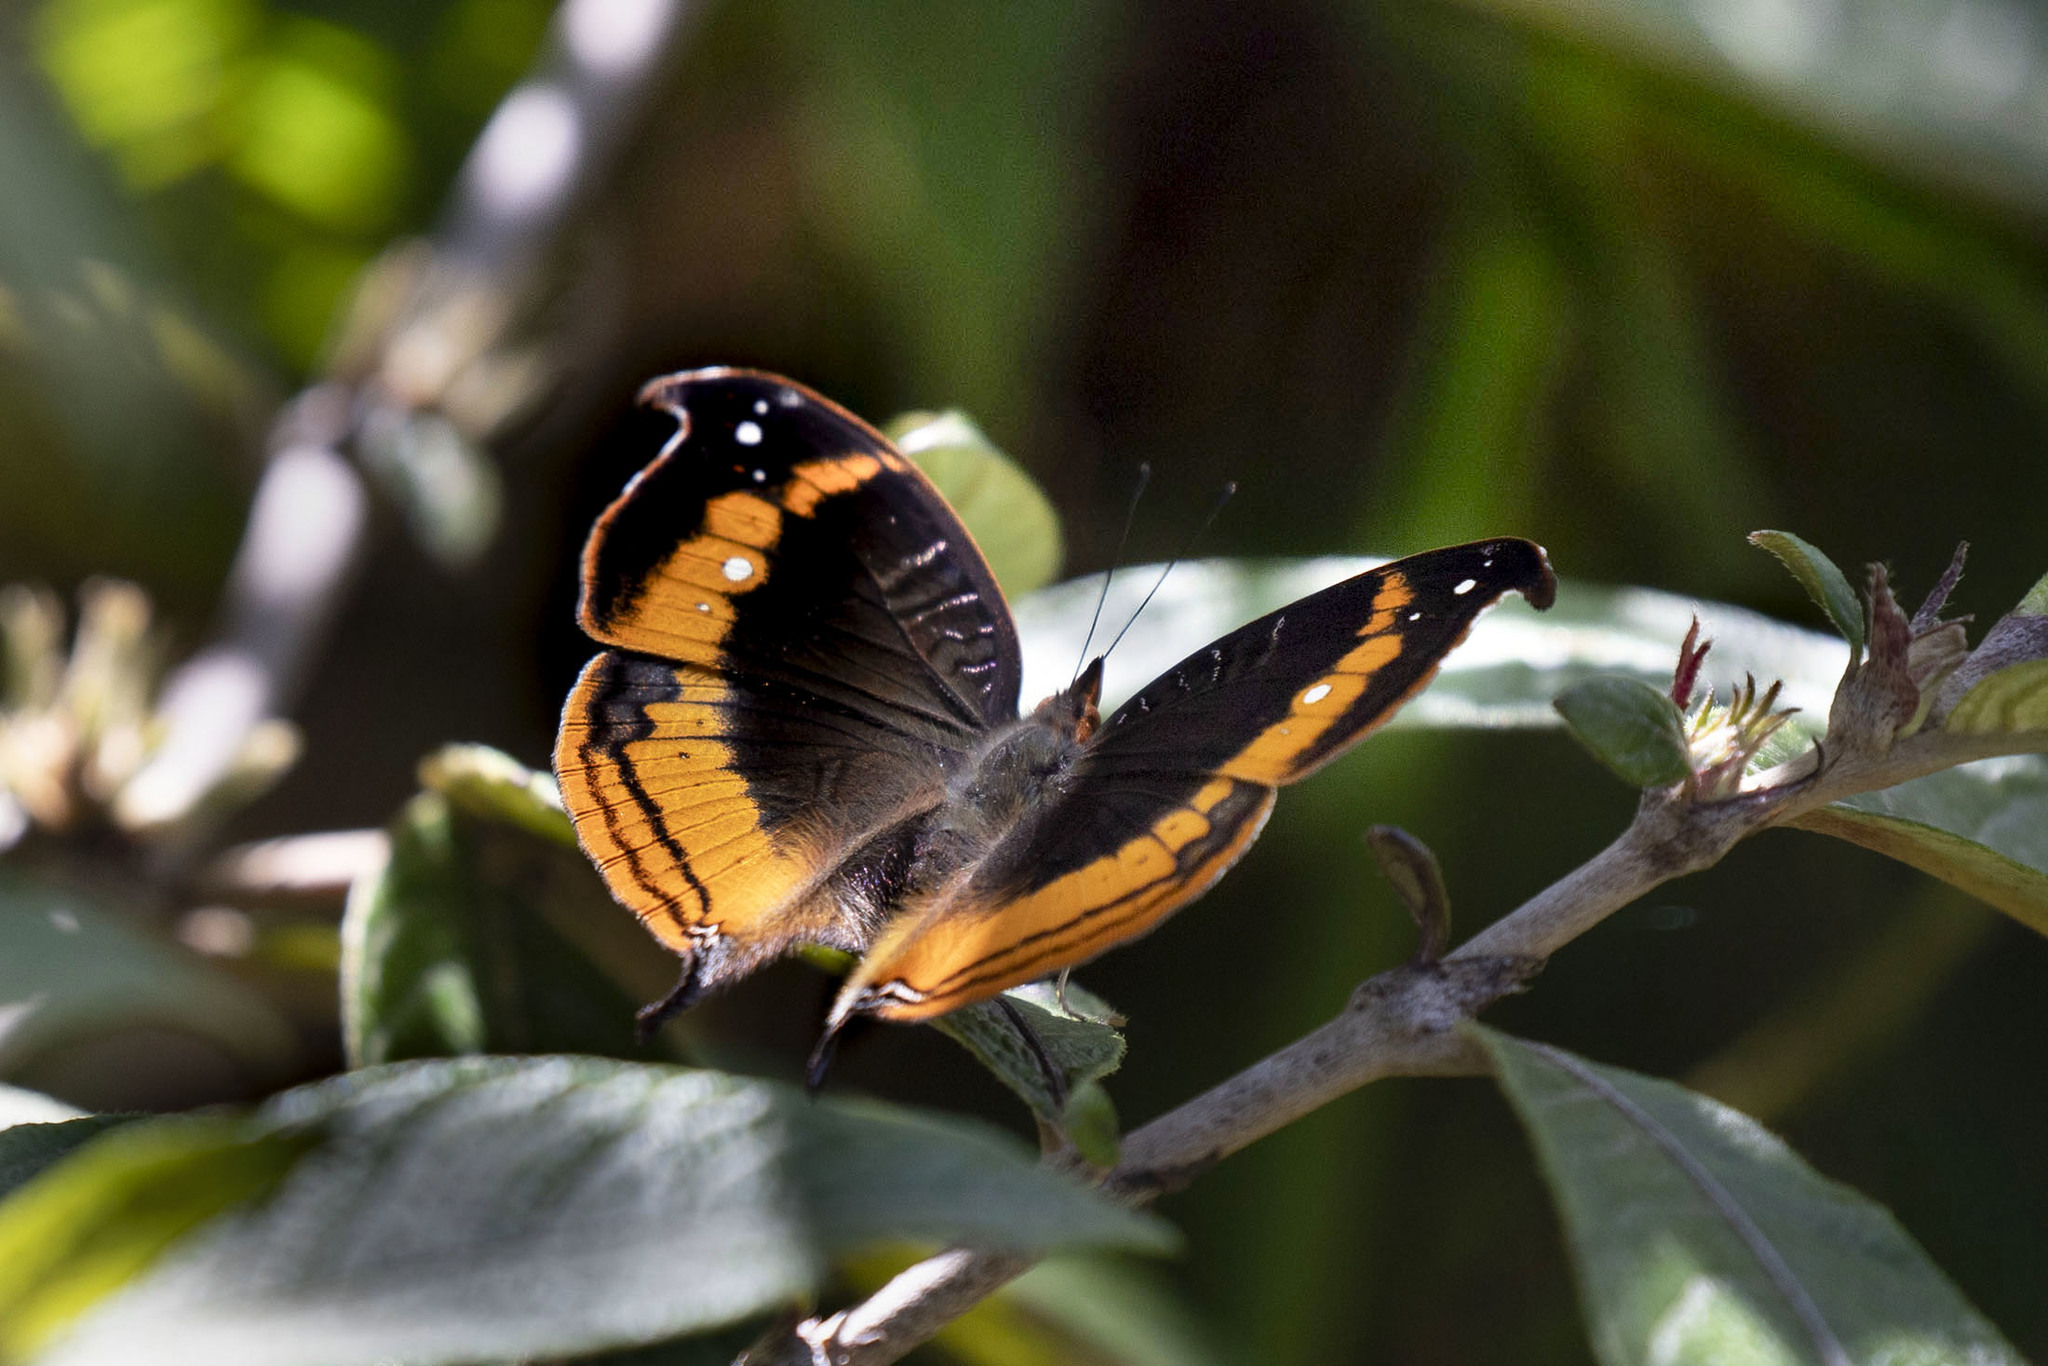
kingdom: Animalia
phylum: Arthropoda
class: Insecta
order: Lepidoptera
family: Nymphalidae
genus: Precis
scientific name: Precis eurodoce
